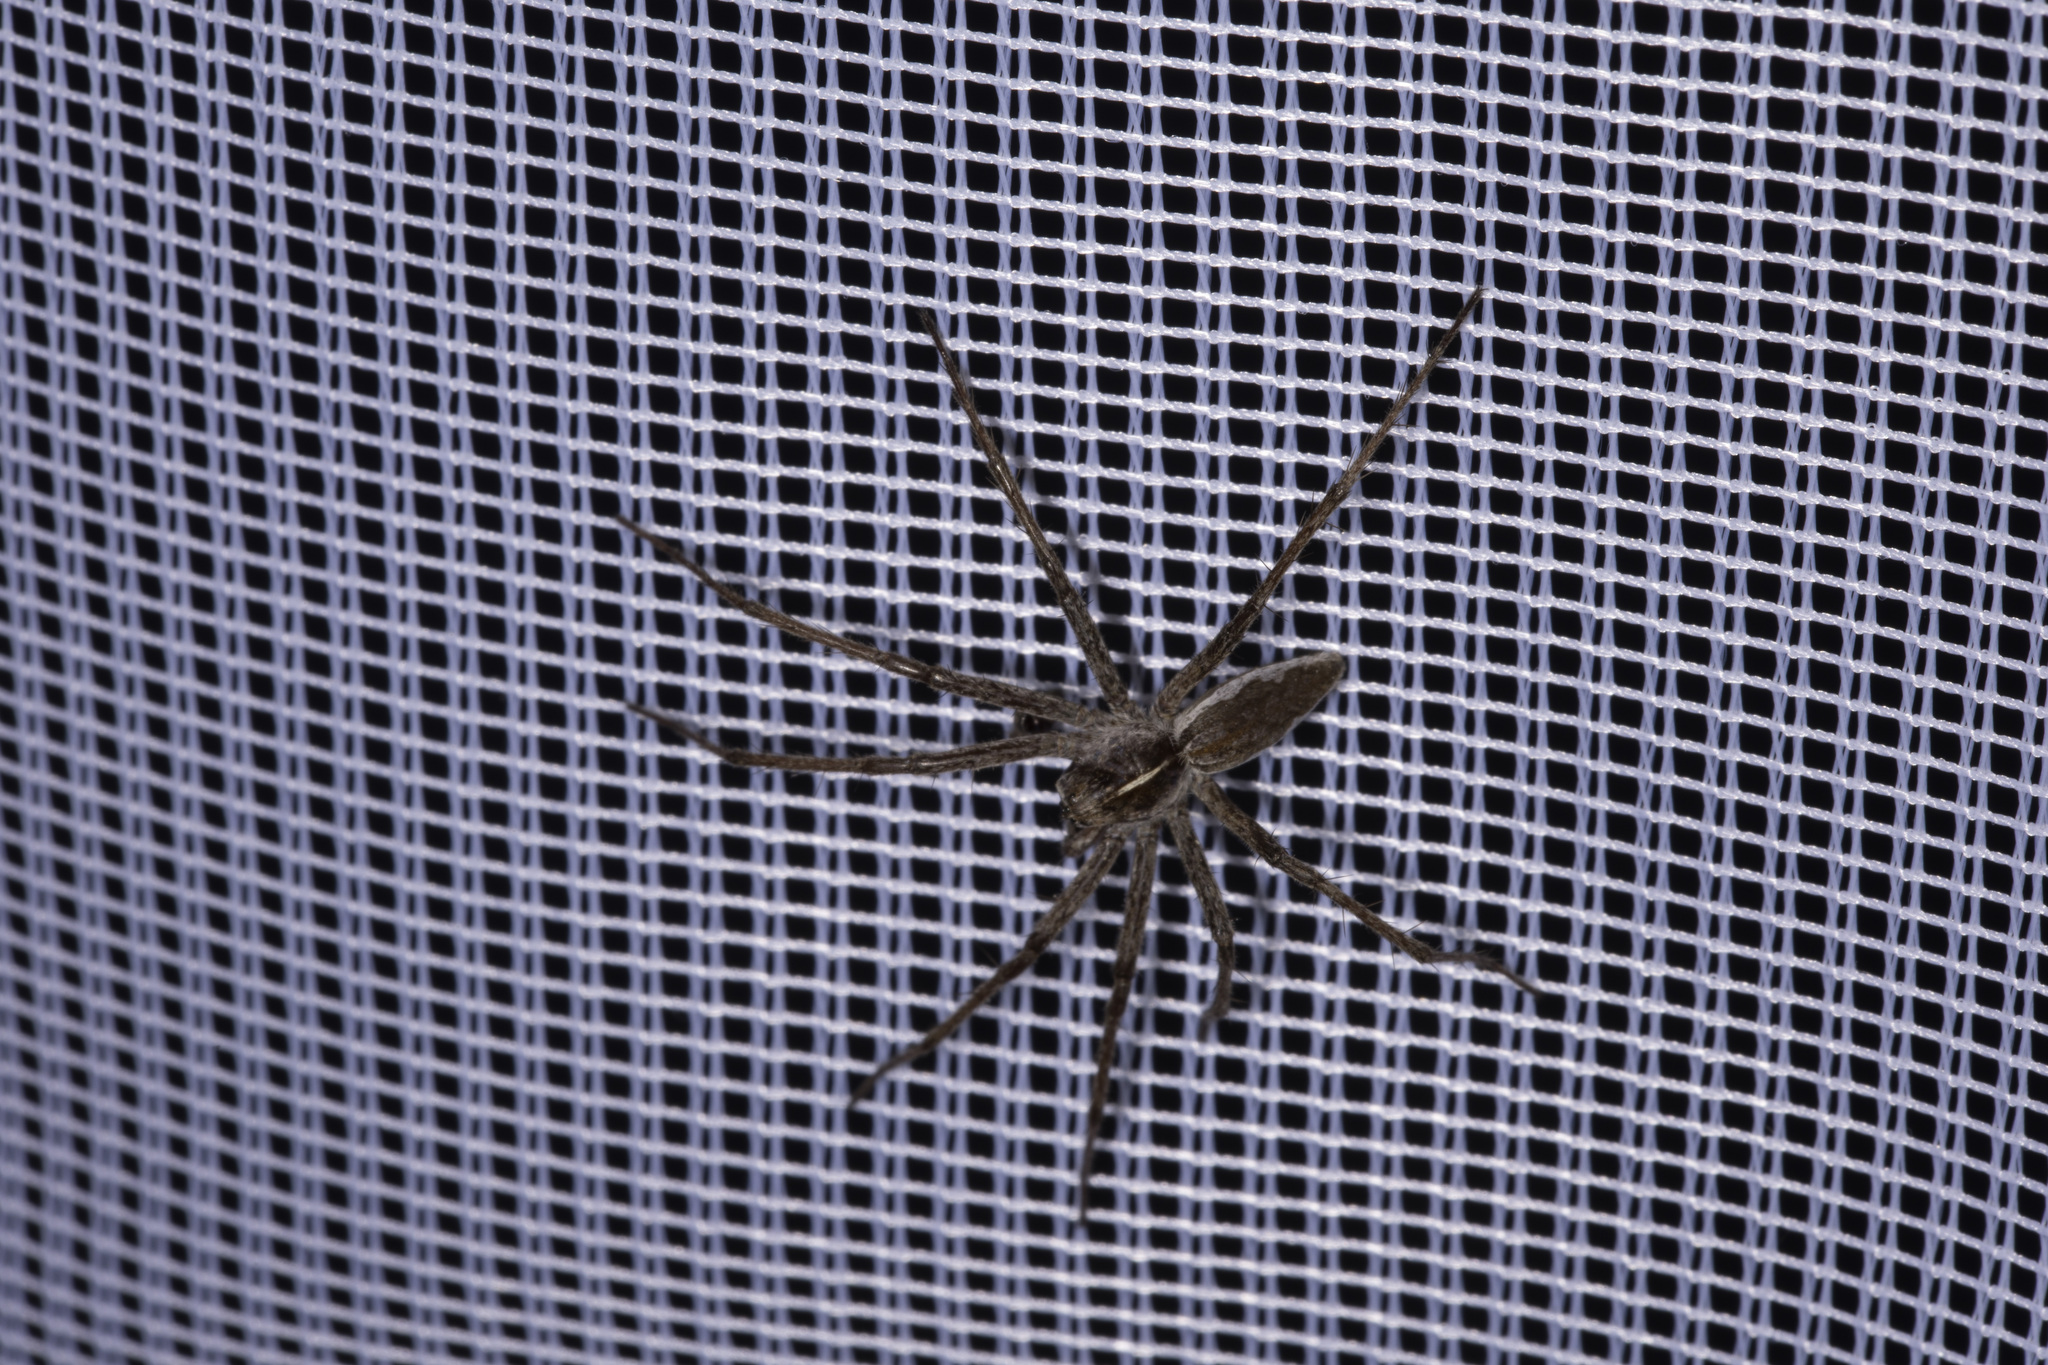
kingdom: Animalia
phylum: Arthropoda
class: Arachnida
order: Araneae
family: Pisauridae
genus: Pisaura
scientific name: Pisaura mirabilis
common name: Tent spider
